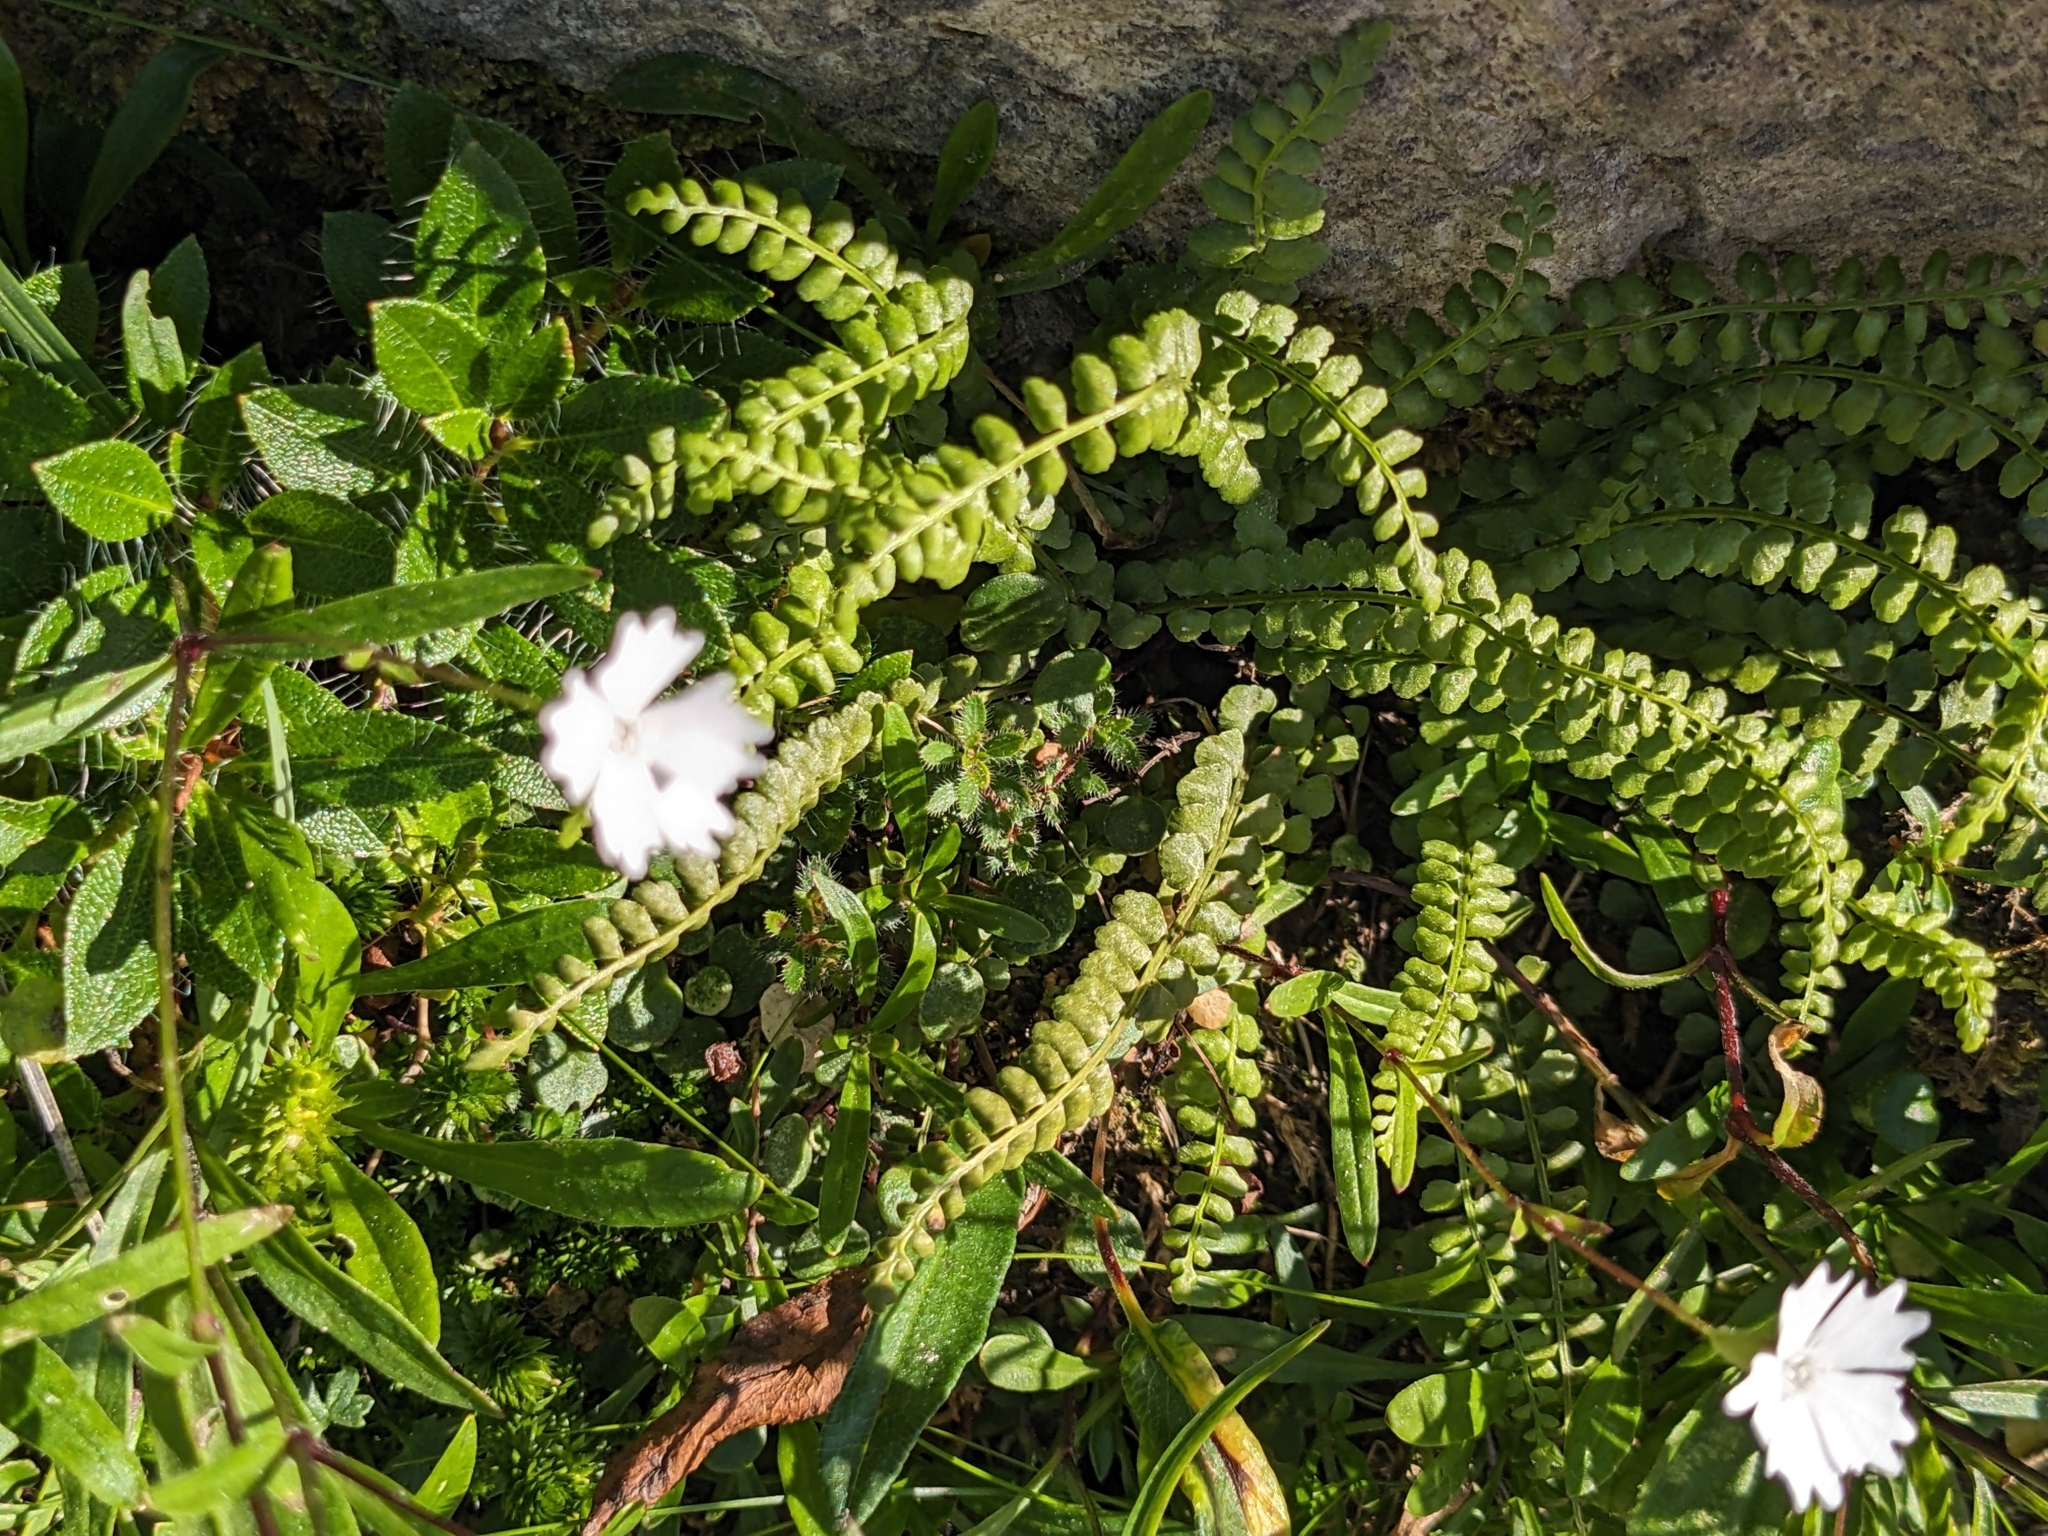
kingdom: Plantae
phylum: Tracheophyta
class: Polypodiopsida
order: Polypodiales
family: Aspleniaceae
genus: Asplenium
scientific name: Asplenium viride
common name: Green spleenwort
